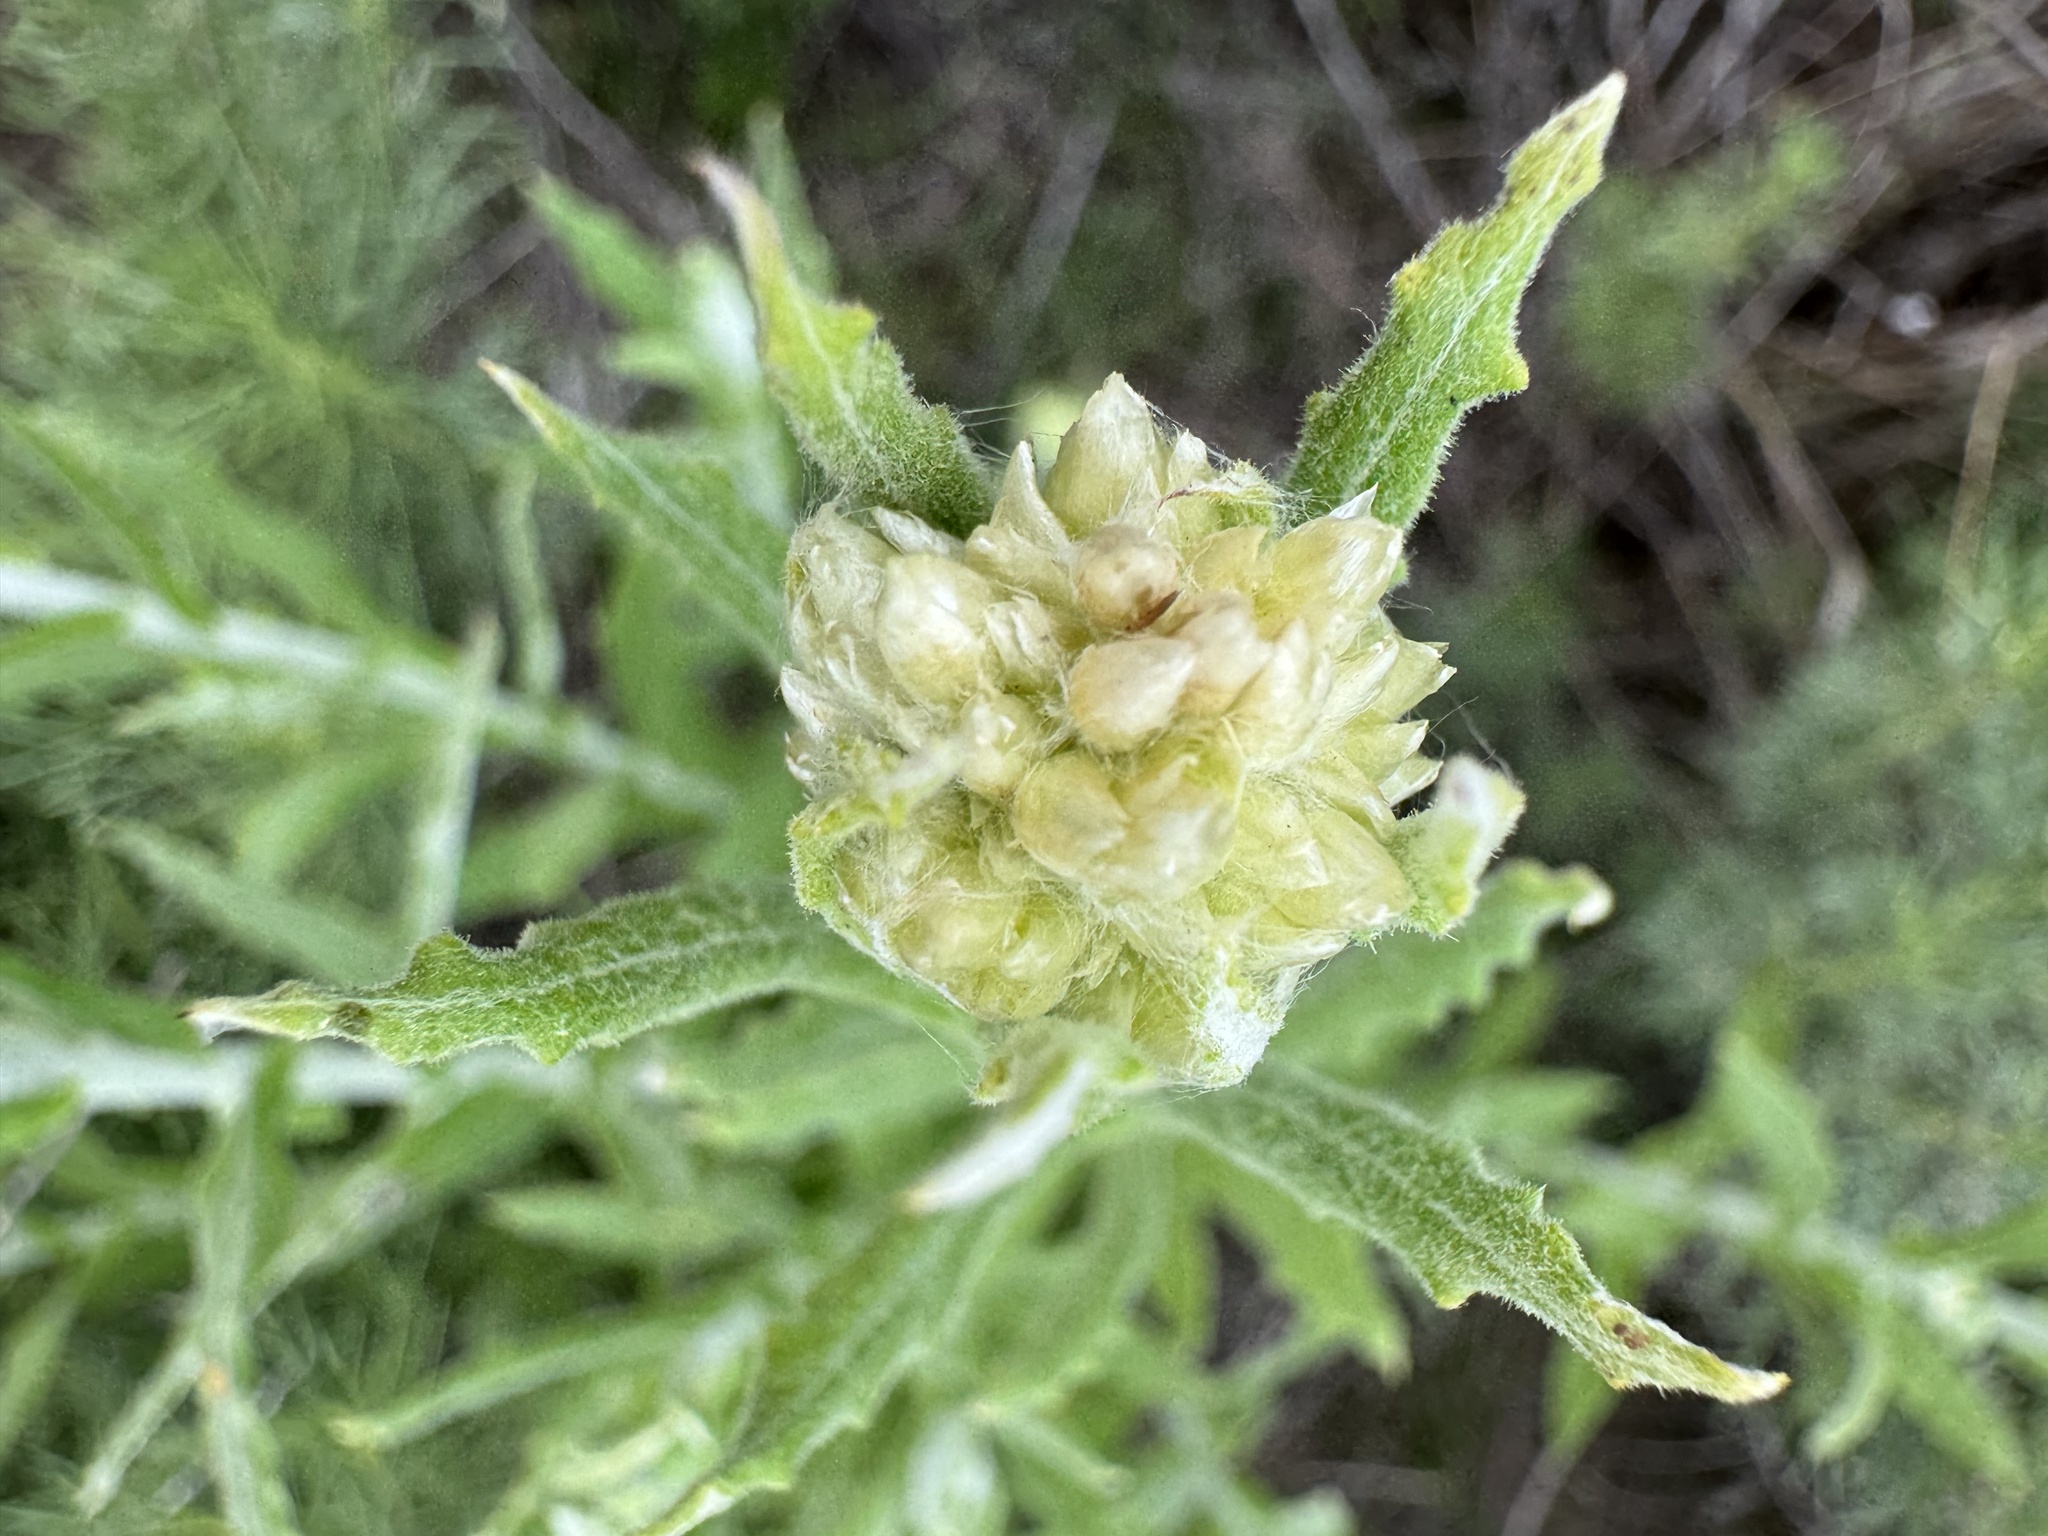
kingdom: Plantae
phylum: Tracheophyta
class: Magnoliopsida
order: Asterales
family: Asteraceae
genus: Pseudognaphalium
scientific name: Pseudognaphalium biolettii
